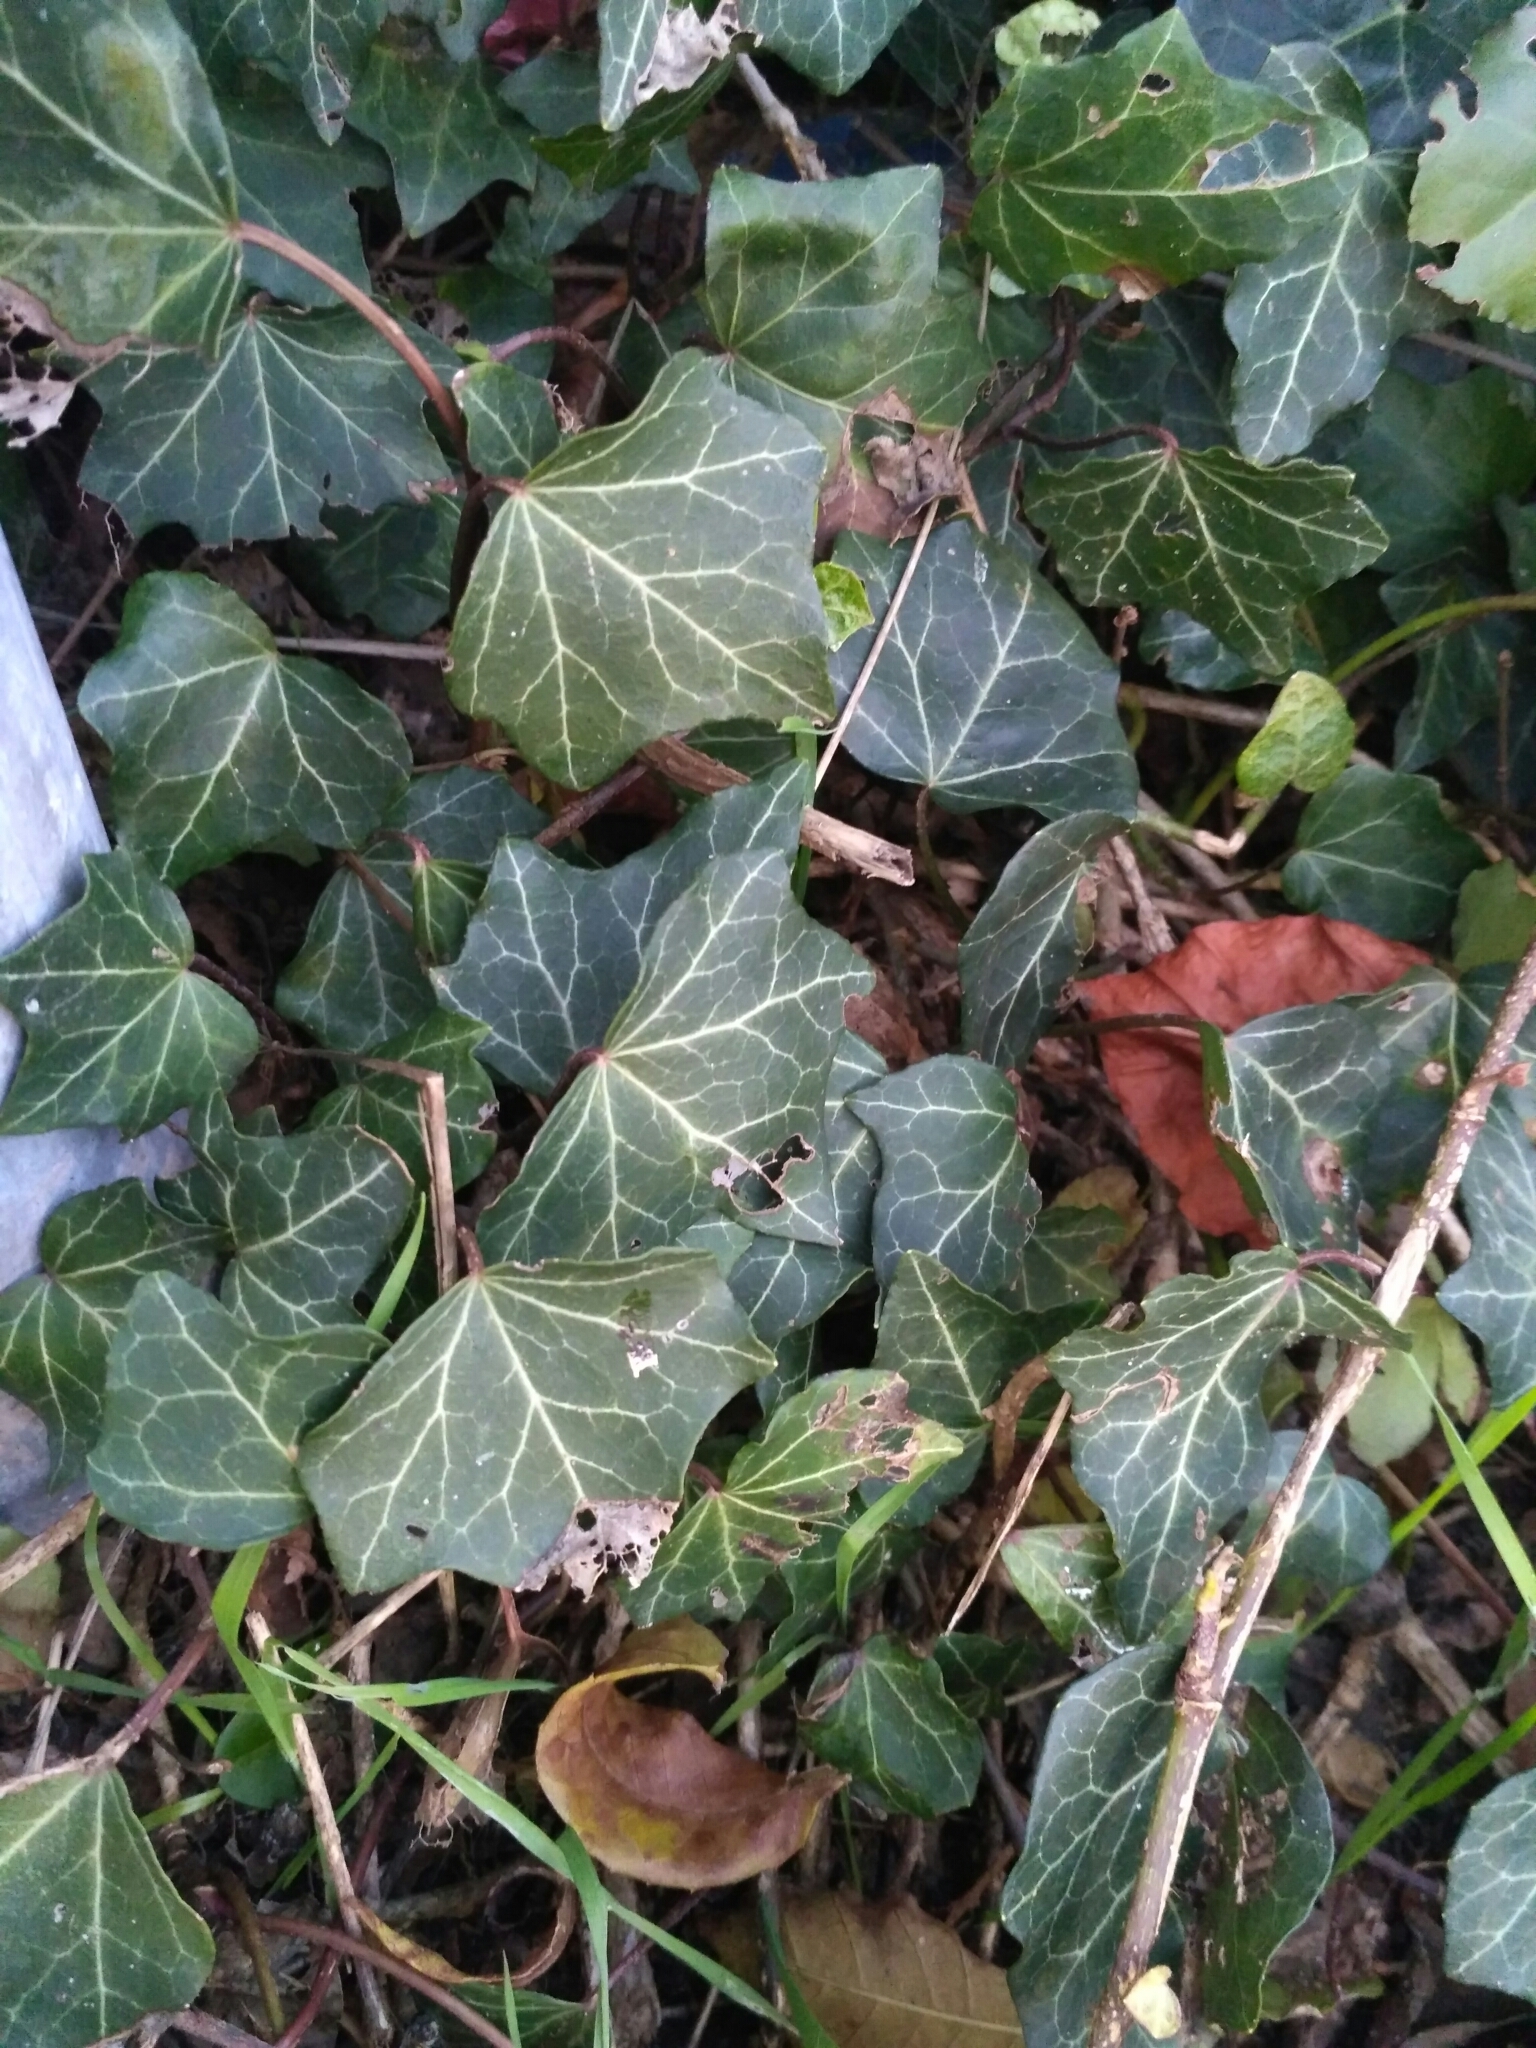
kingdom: Plantae
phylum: Tracheophyta
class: Magnoliopsida
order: Apiales
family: Araliaceae
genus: Hedera
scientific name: Hedera helix
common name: Ivy
